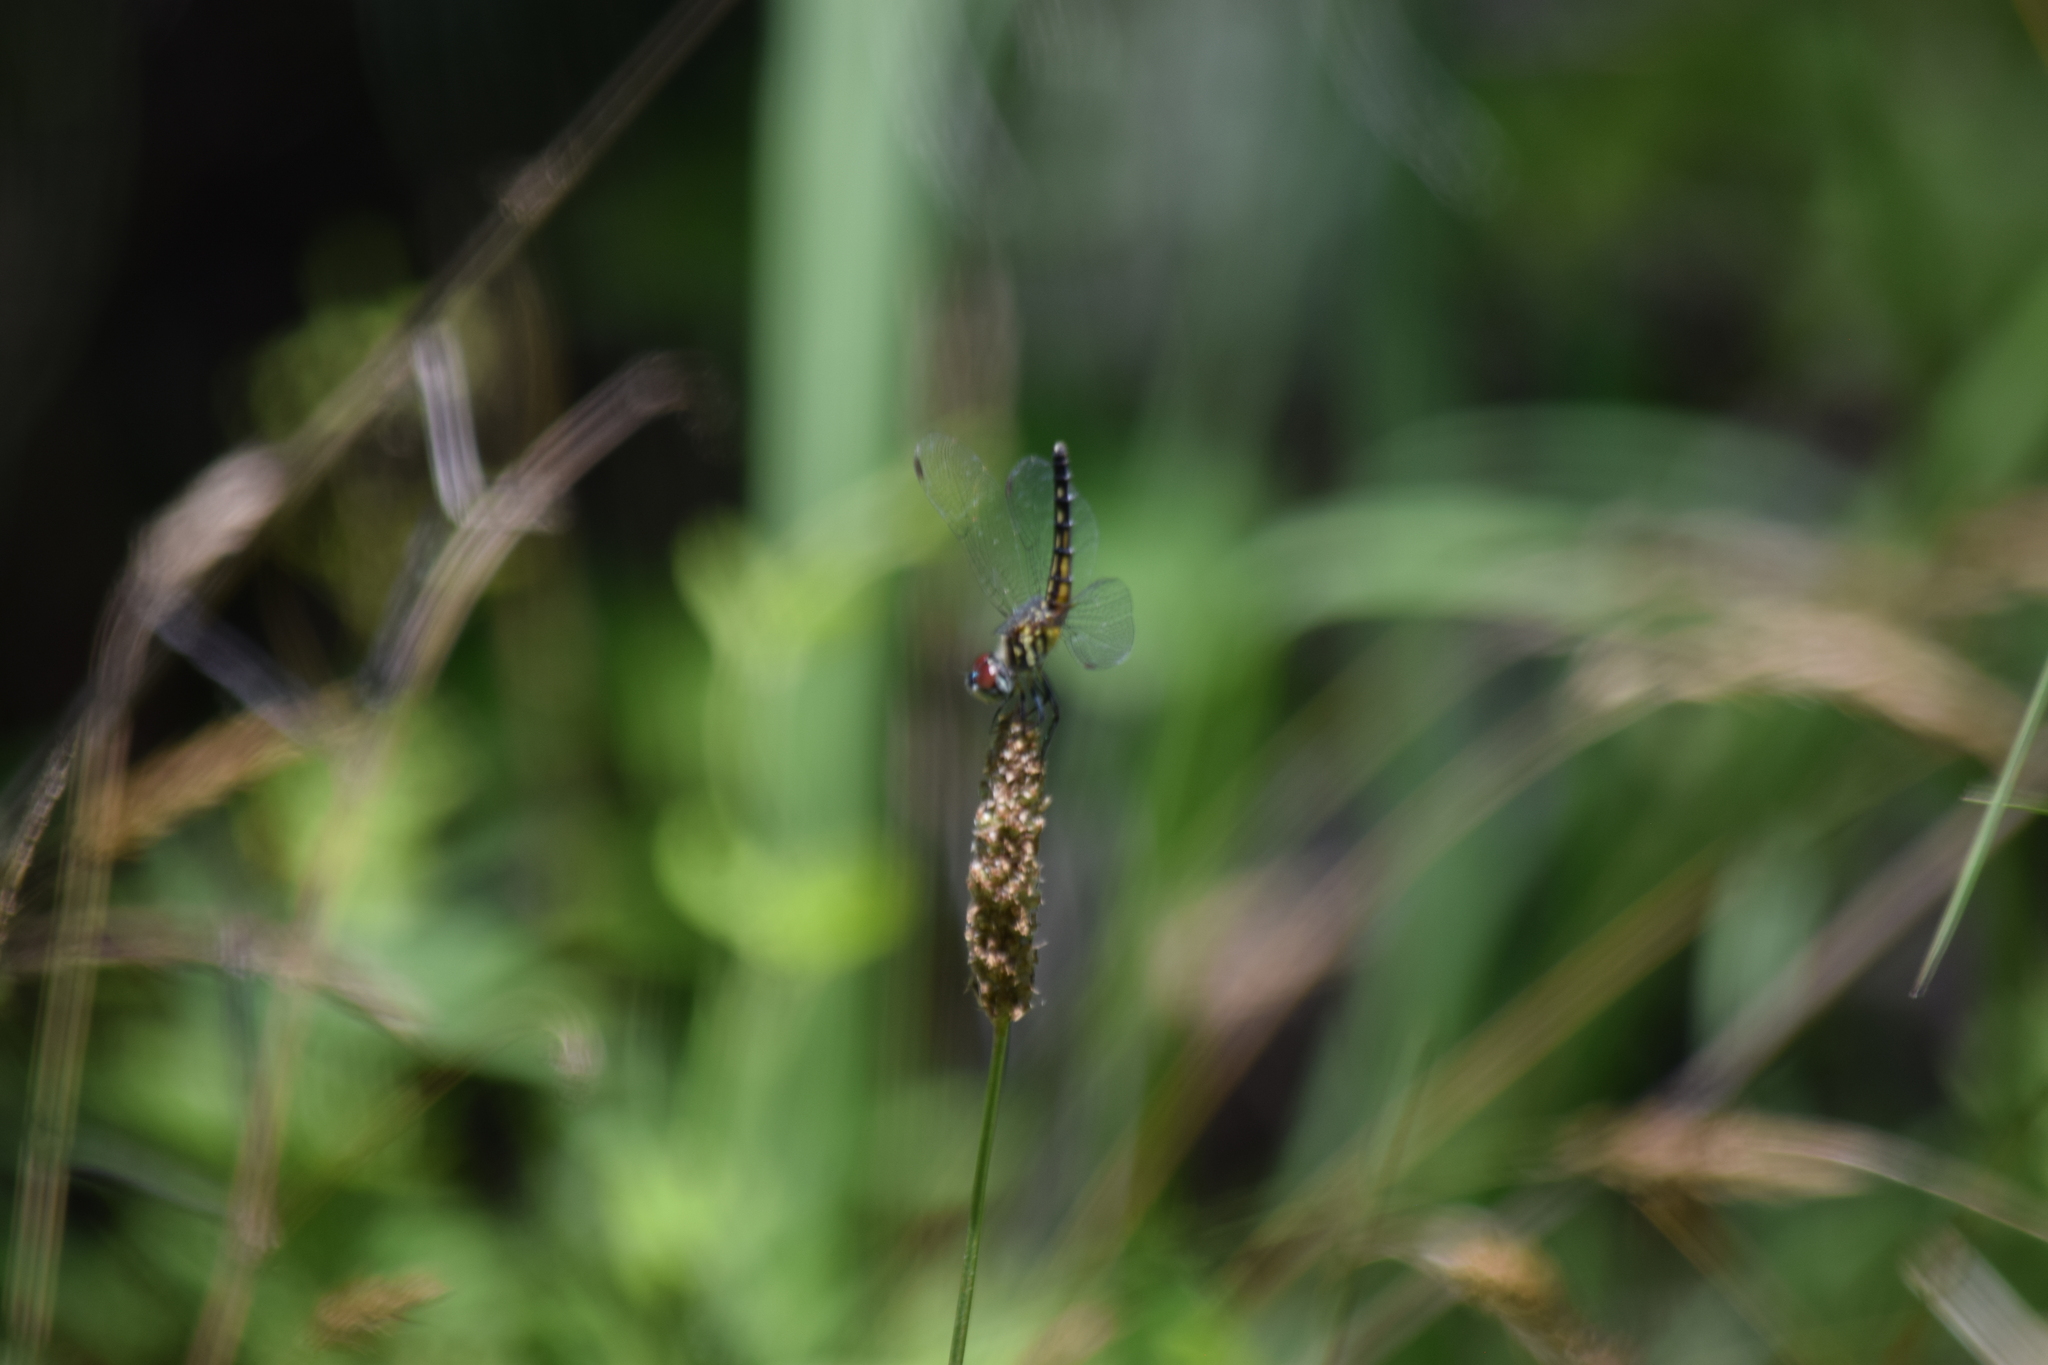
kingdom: Animalia
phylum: Arthropoda
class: Insecta
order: Odonata
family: Libellulidae
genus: Pachydiplax
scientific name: Pachydiplax longipennis
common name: Blue dasher
